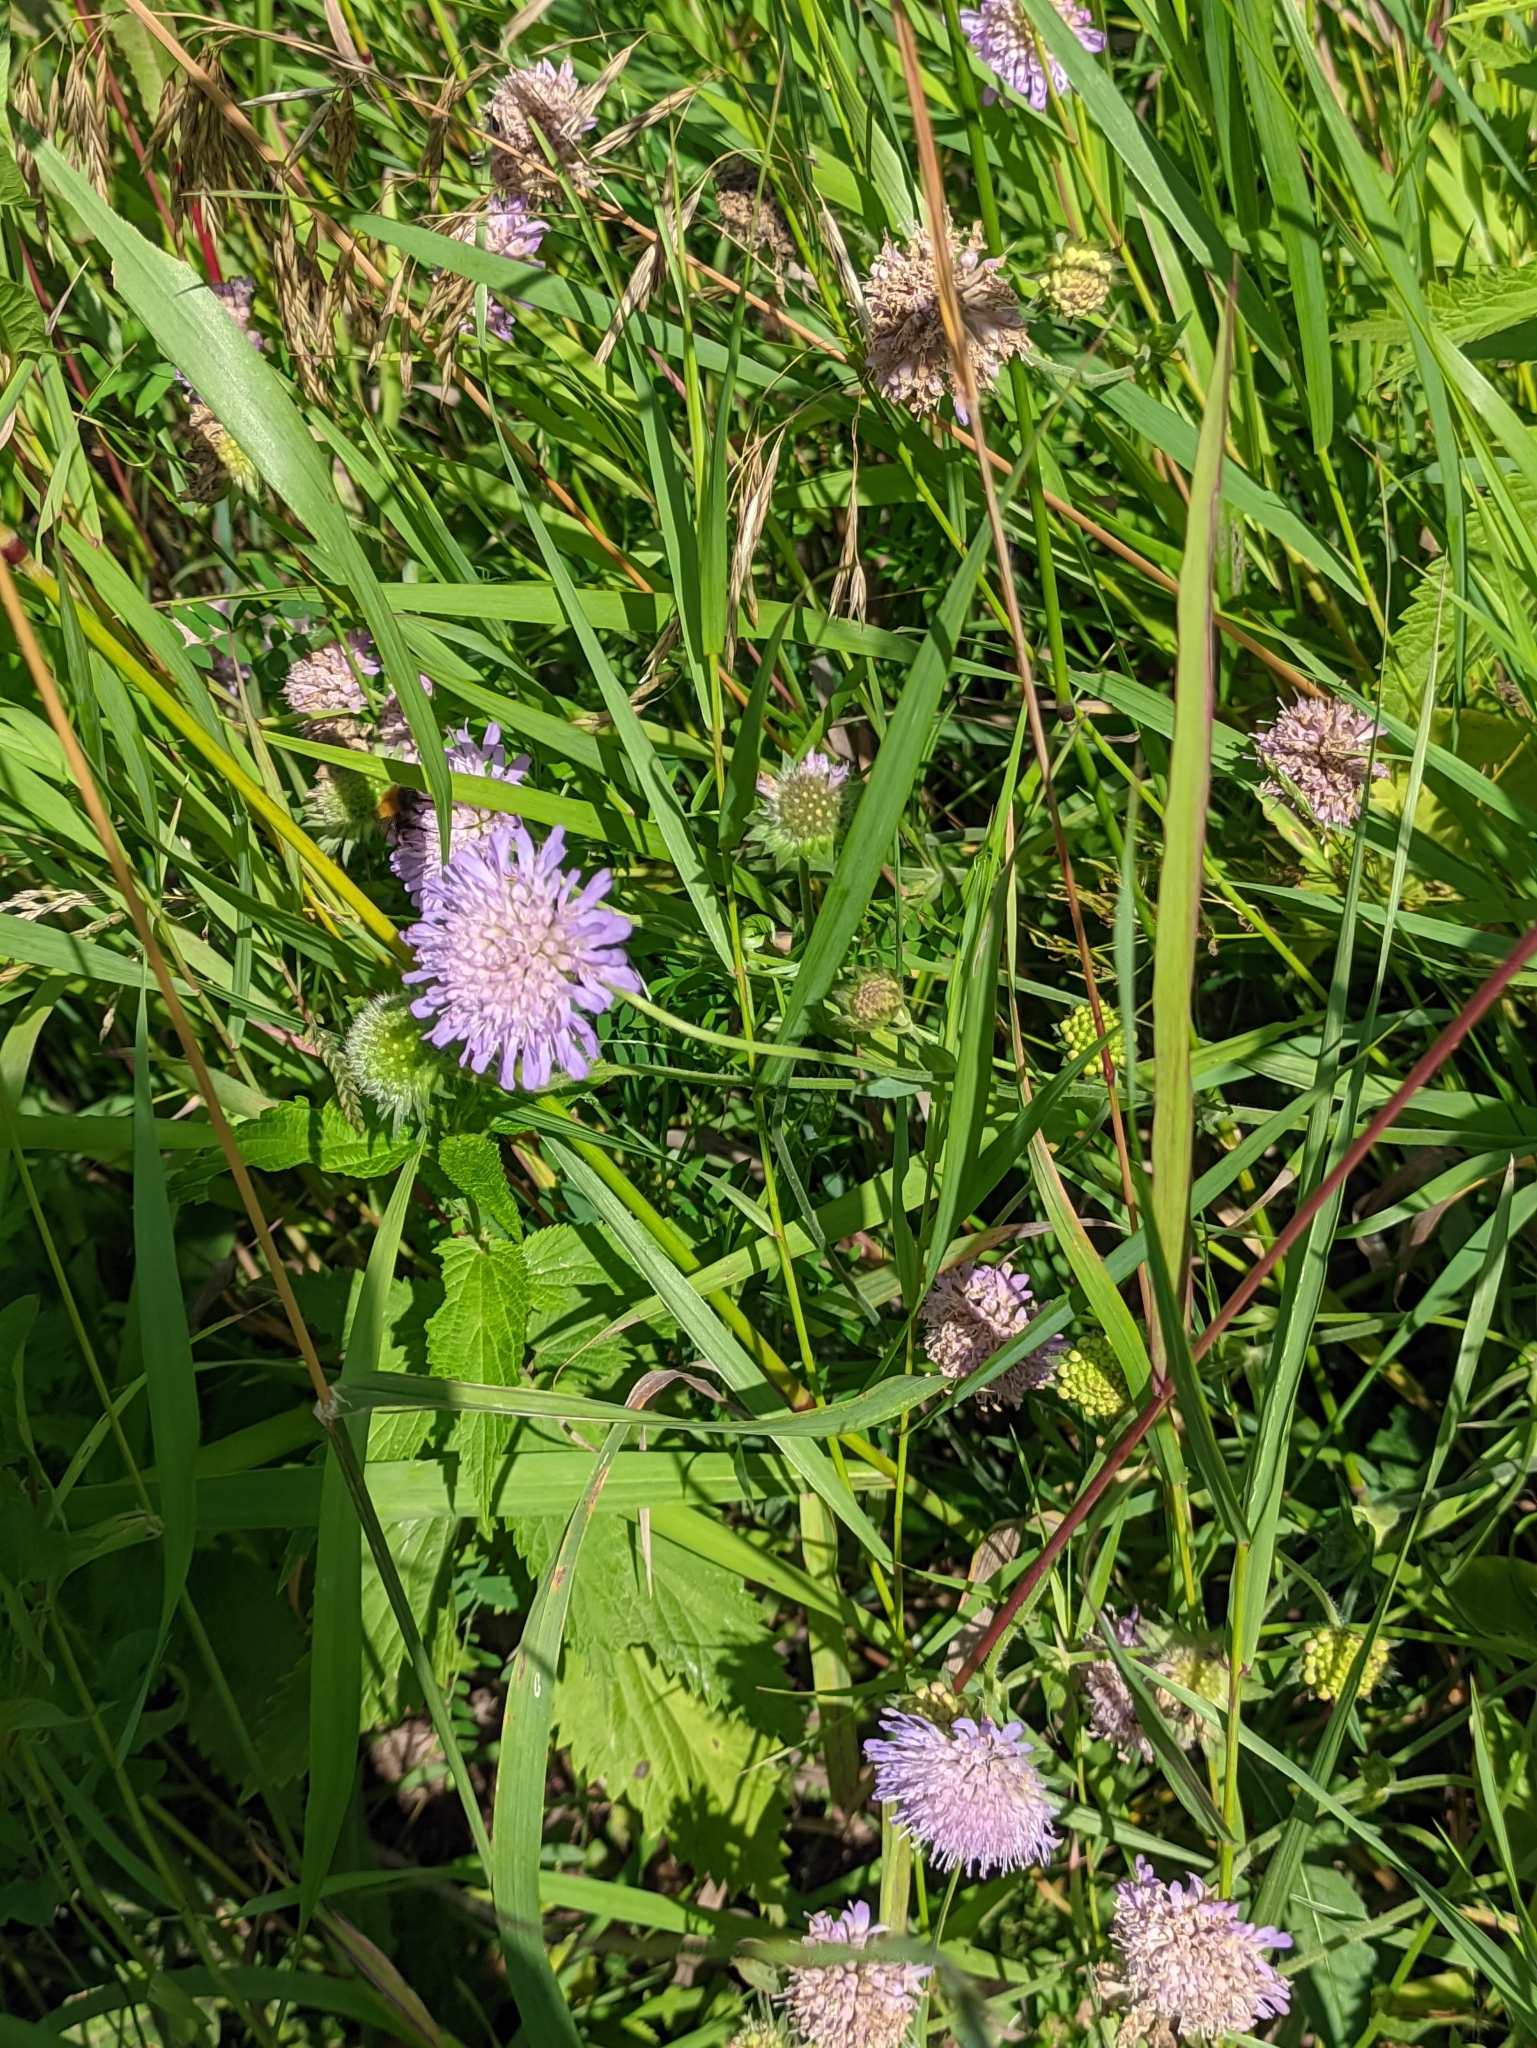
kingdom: Plantae
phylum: Tracheophyta
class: Magnoliopsida
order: Dipsacales
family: Caprifoliaceae
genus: Knautia
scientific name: Knautia arvensis
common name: Field scabiosa
